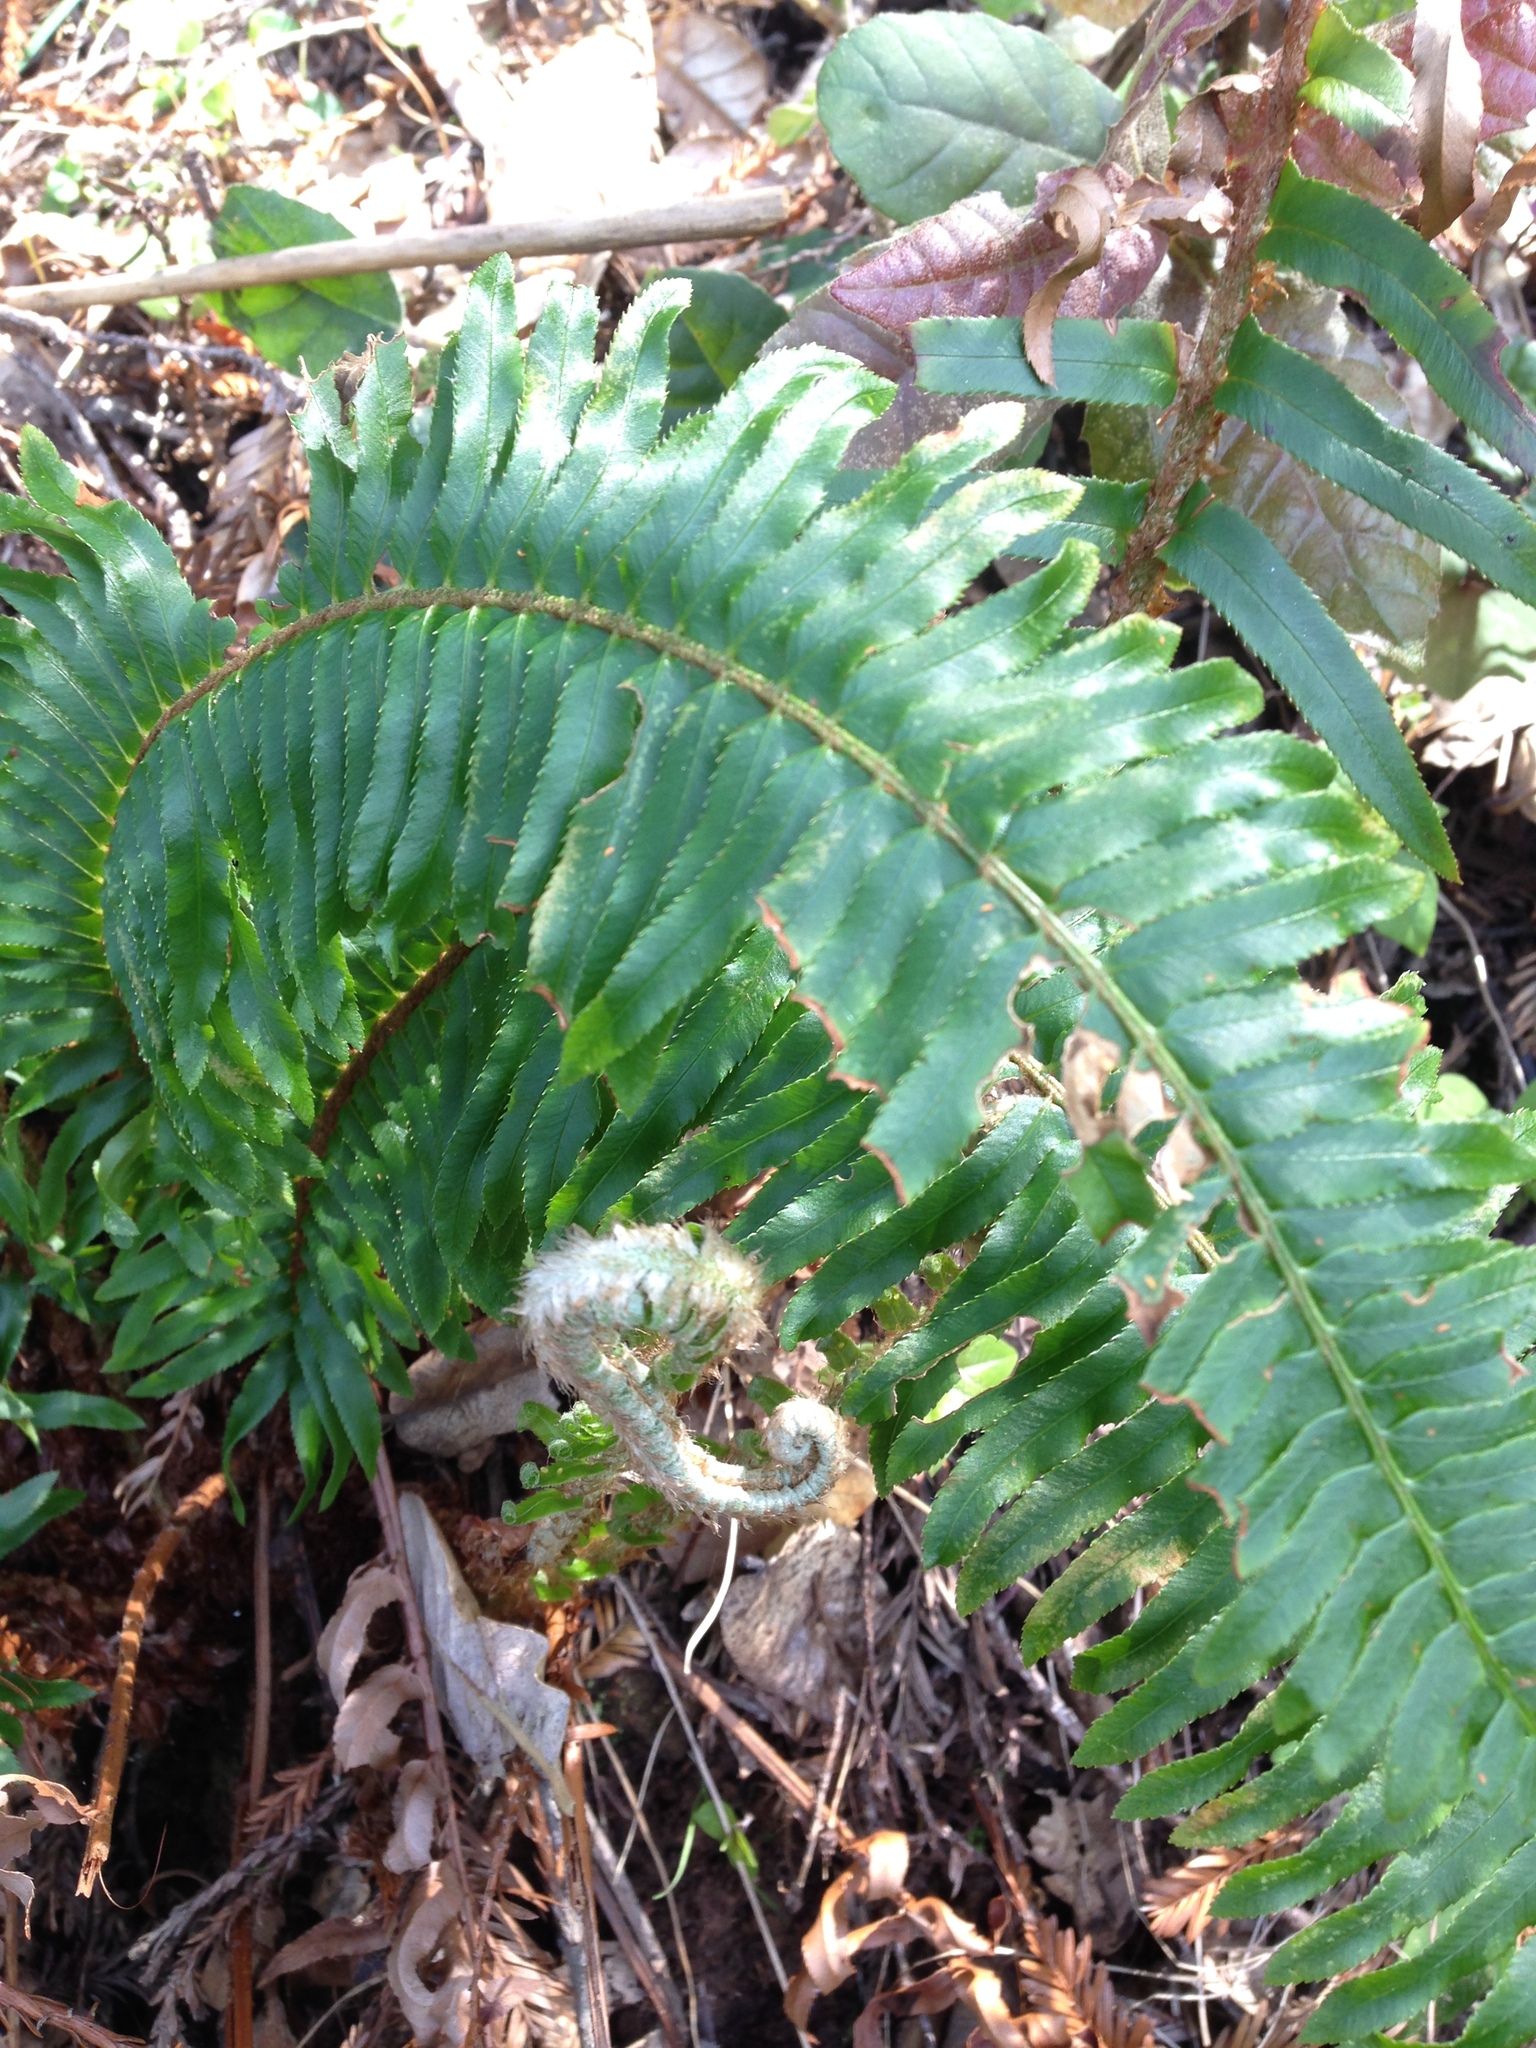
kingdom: Plantae
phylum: Tracheophyta
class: Polypodiopsida
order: Polypodiales
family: Dryopteridaceae
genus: Polystichum
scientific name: Polystichum munitum
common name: Western sword-fern
